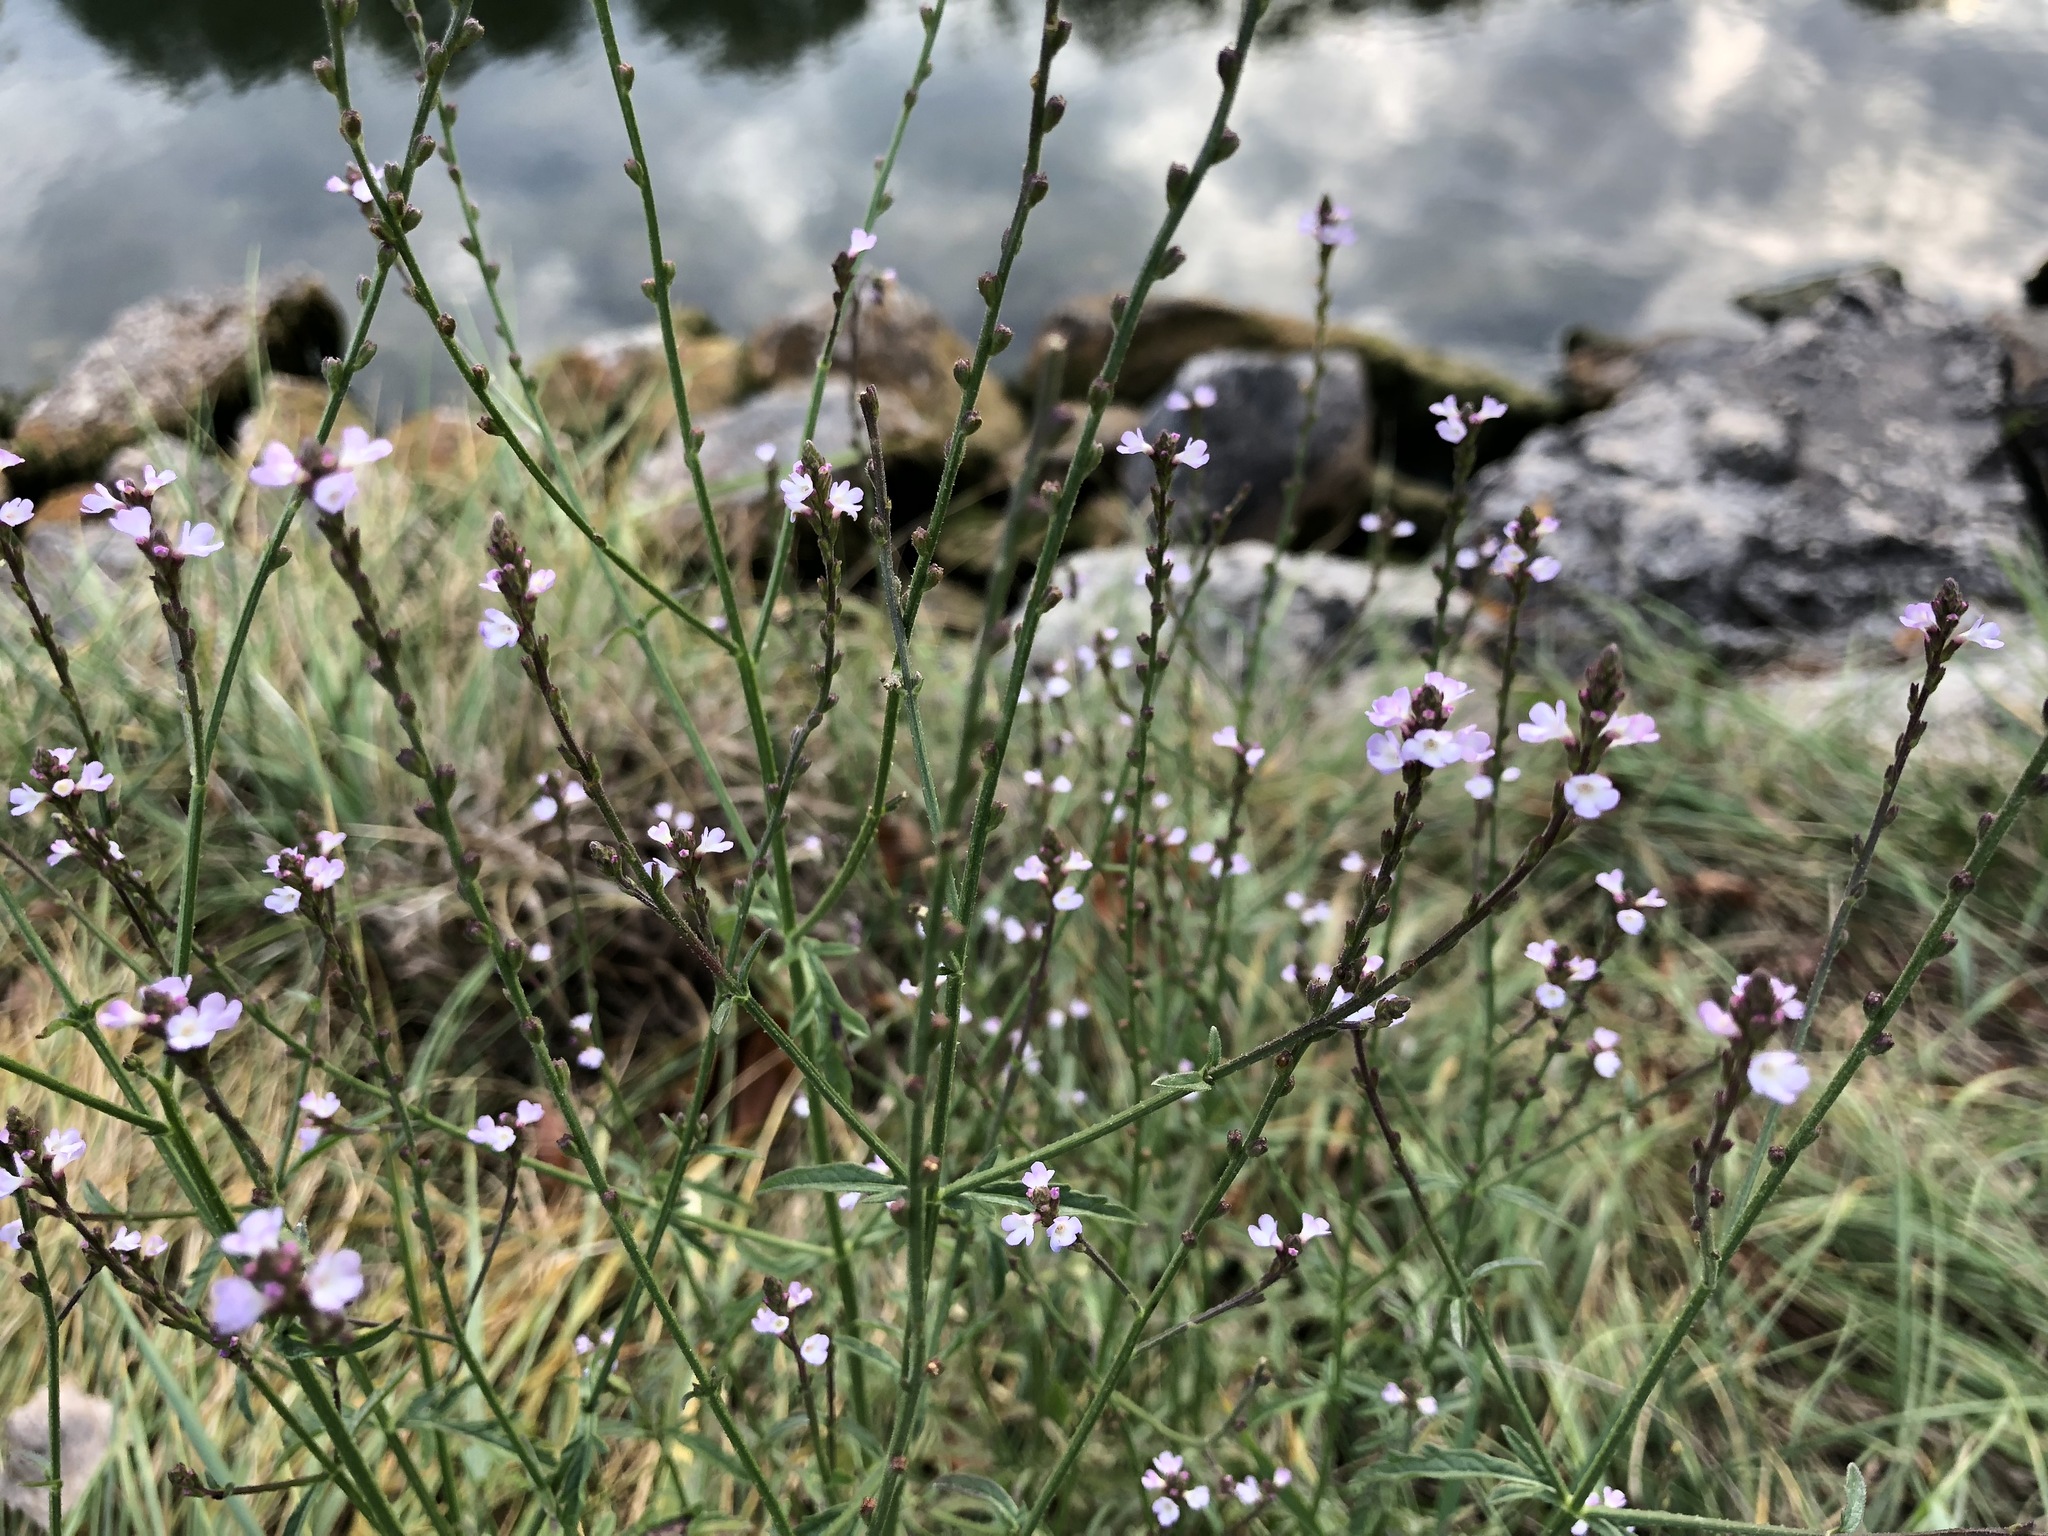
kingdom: Plantae
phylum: Tracheophyta
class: Magnoliopsida
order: Lamiales
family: Verbenaceae
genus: Verbena
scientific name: Verbena officinalis
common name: Vervain
